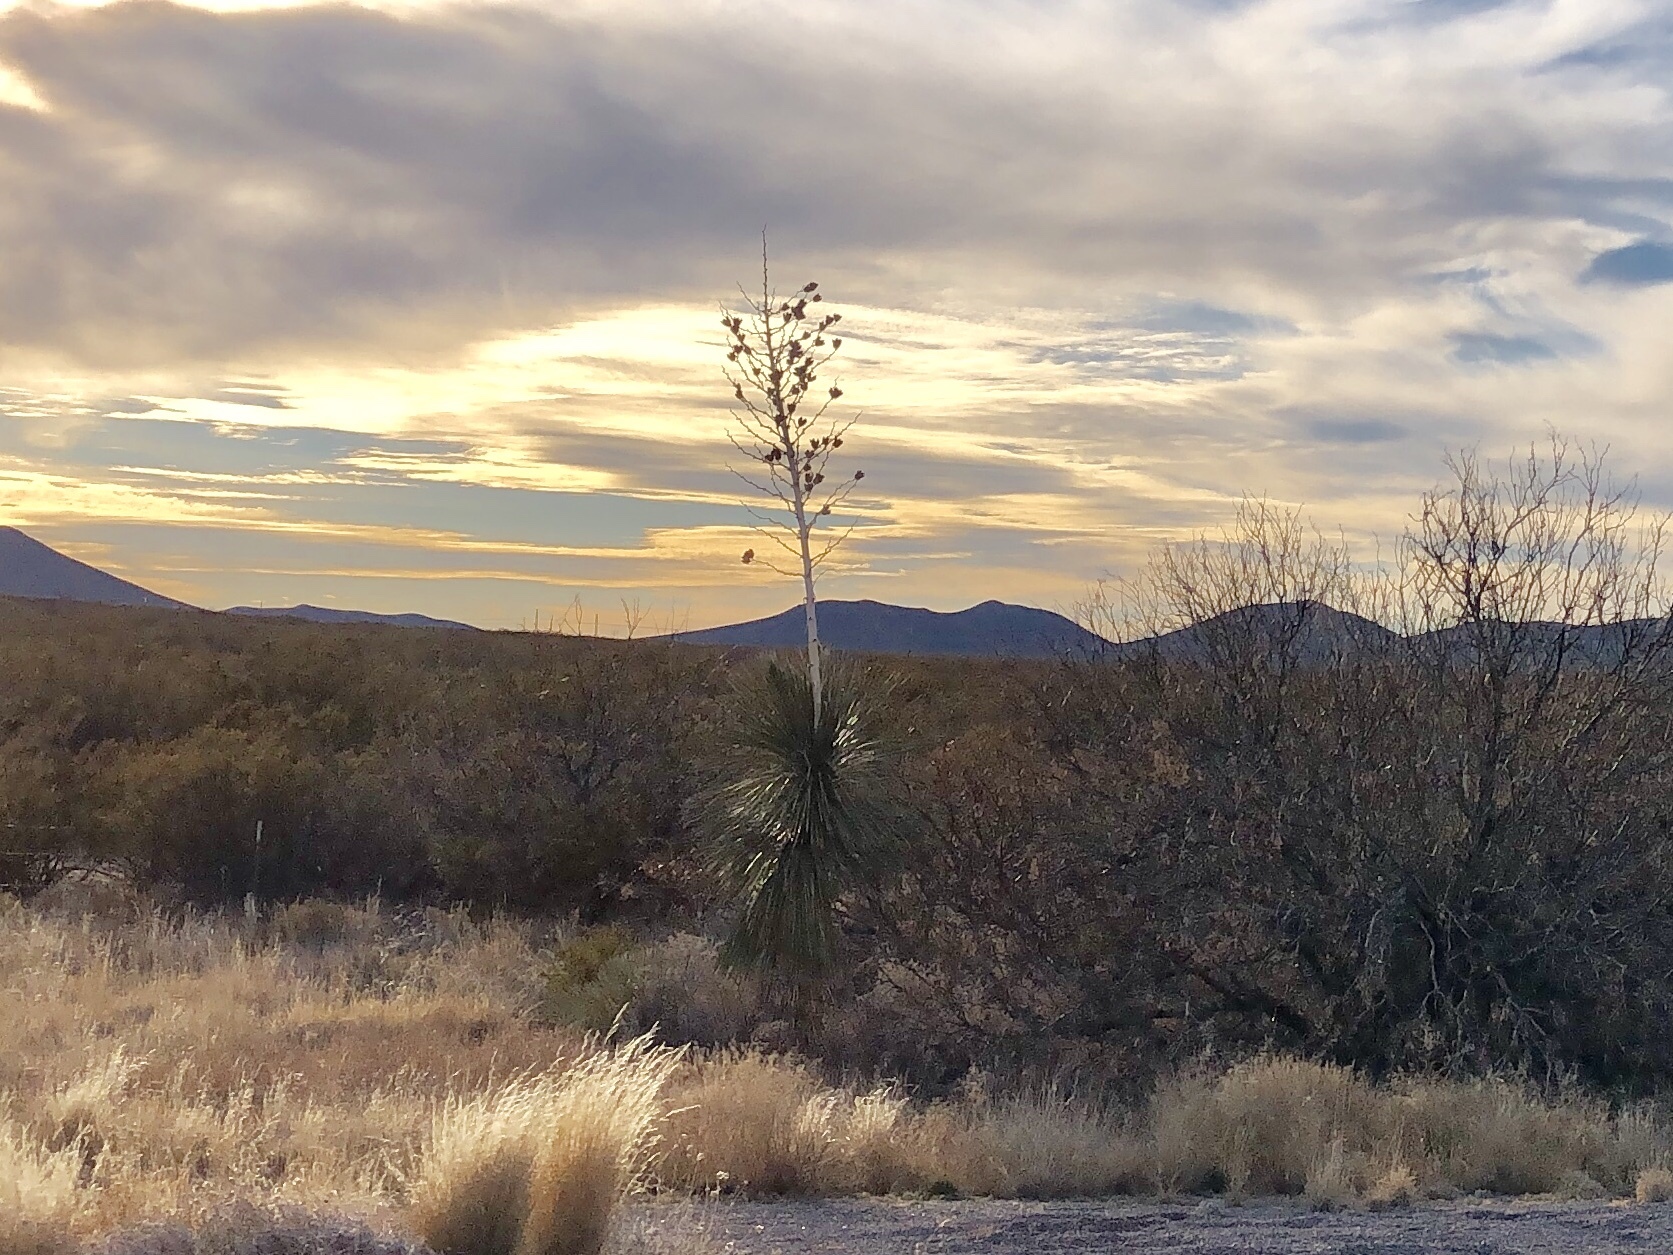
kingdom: Plantae
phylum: Tracheophyta
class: Liliopsida
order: Asparagales
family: Asparagaceae
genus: Yucca
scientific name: Yucca elata
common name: Palmella
